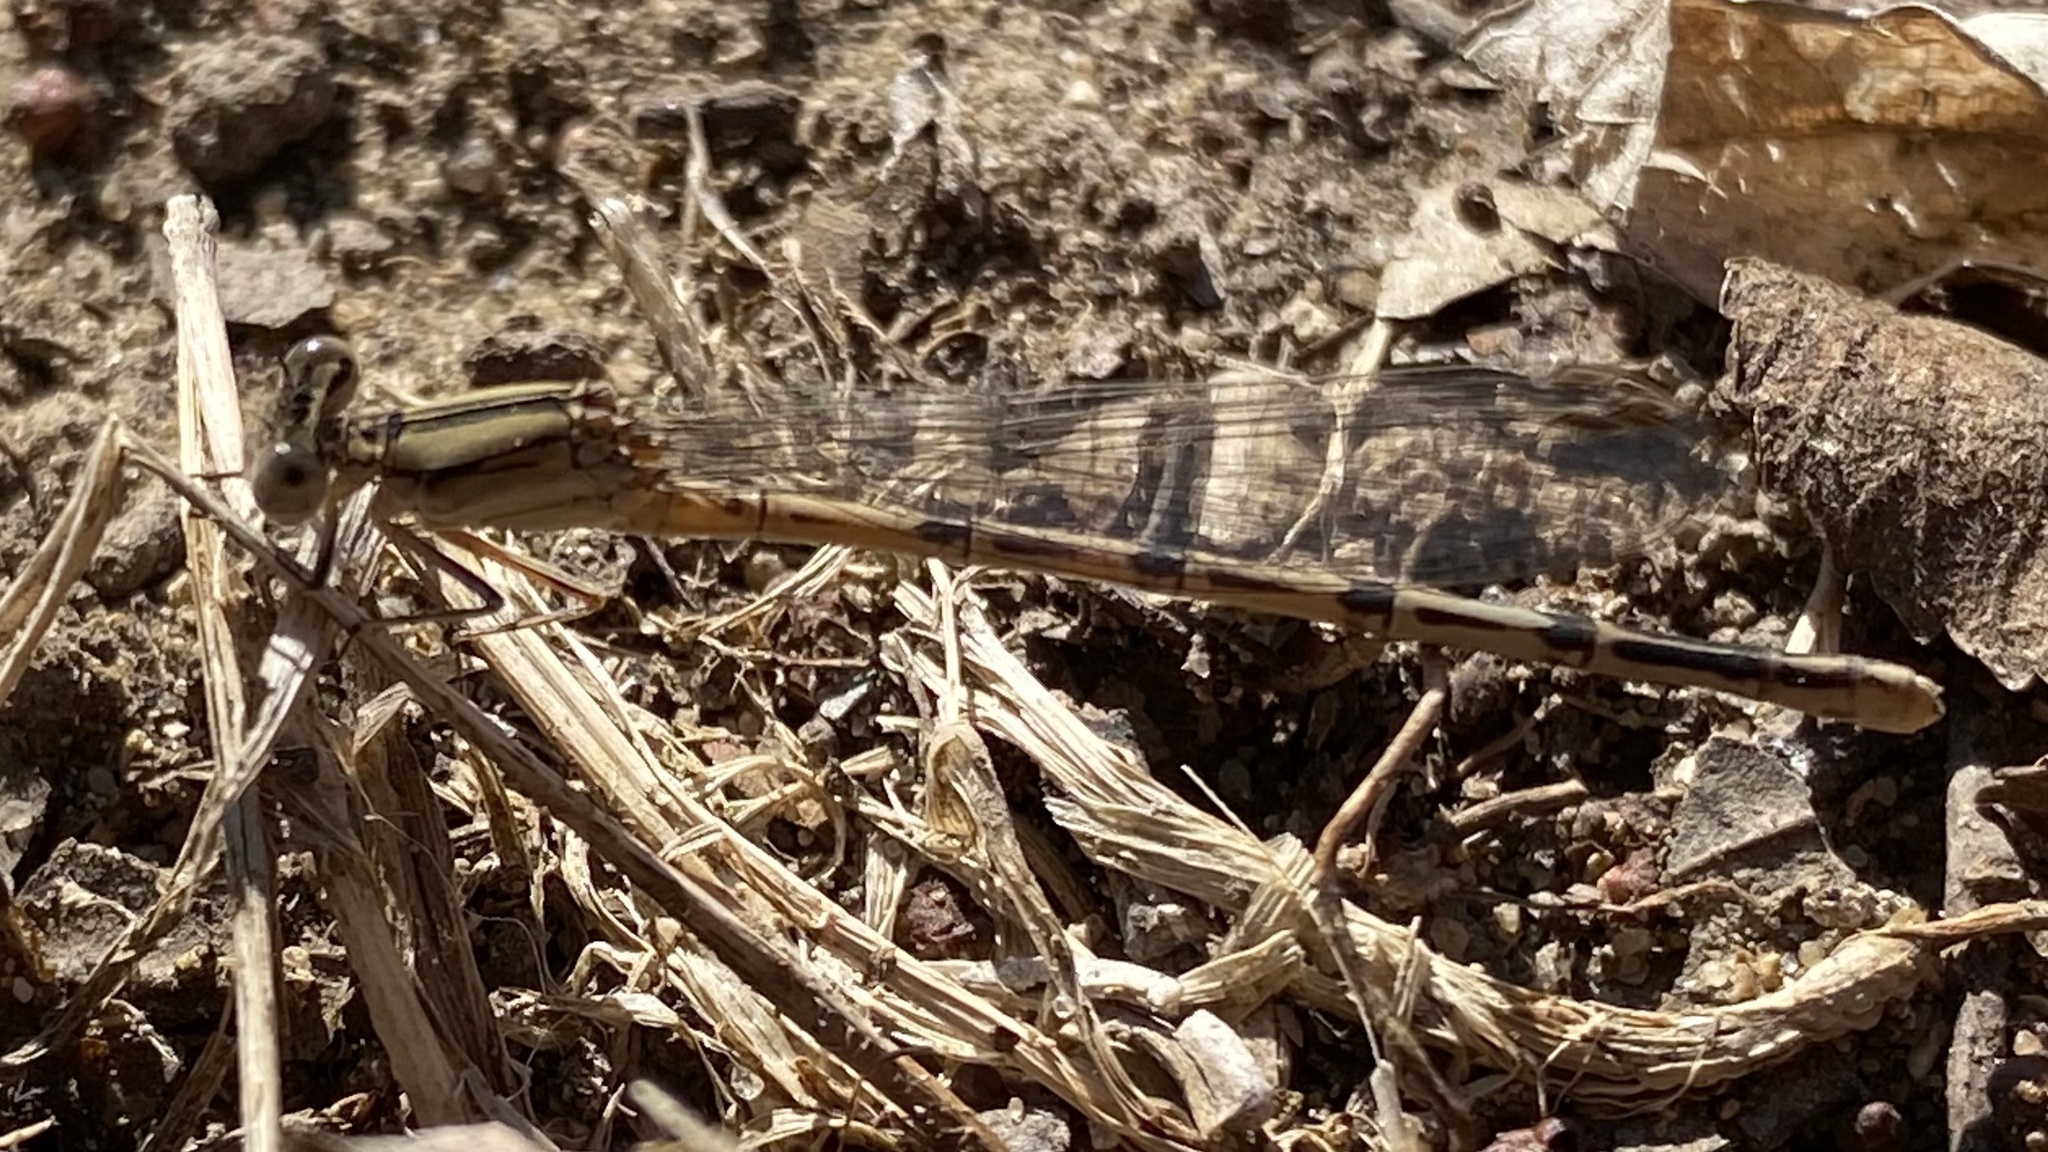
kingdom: Animalia
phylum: Arthropoda
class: Insecta
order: Odonata
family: Coenagrionidae
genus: Argia
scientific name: Argia nahuana
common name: Aztec dancer
